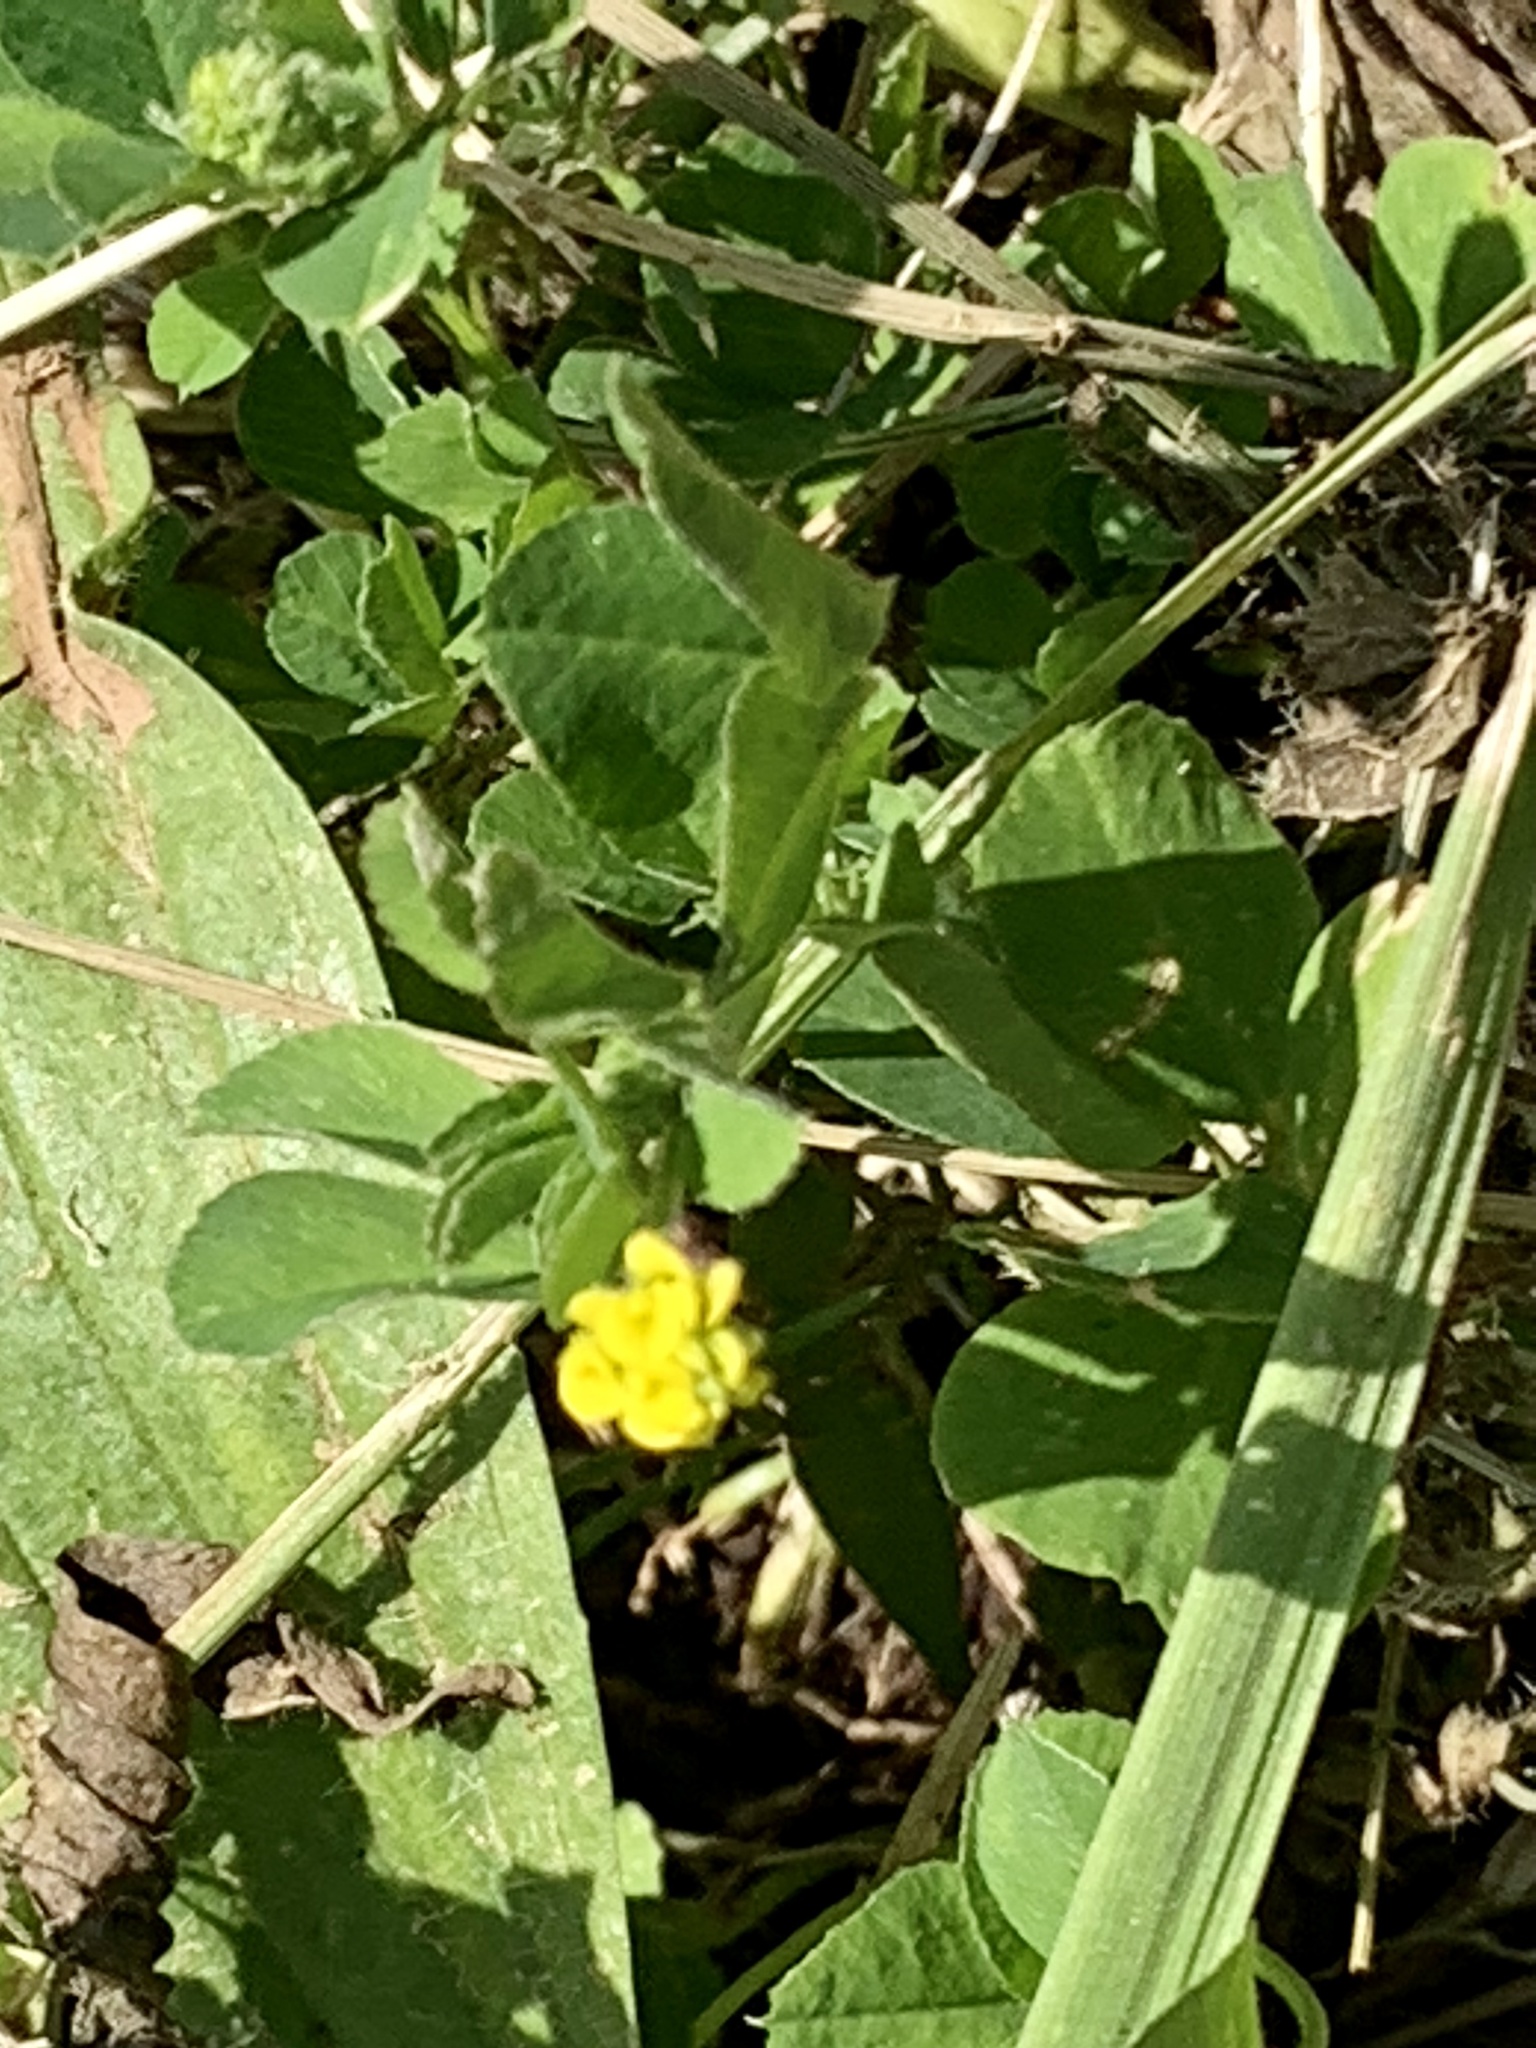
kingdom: Plantae
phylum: Tracheophyta
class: Magnoliopsida
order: Fabales
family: Fabaceae
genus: Medicago
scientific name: Medicago lupulina
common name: Black medick
